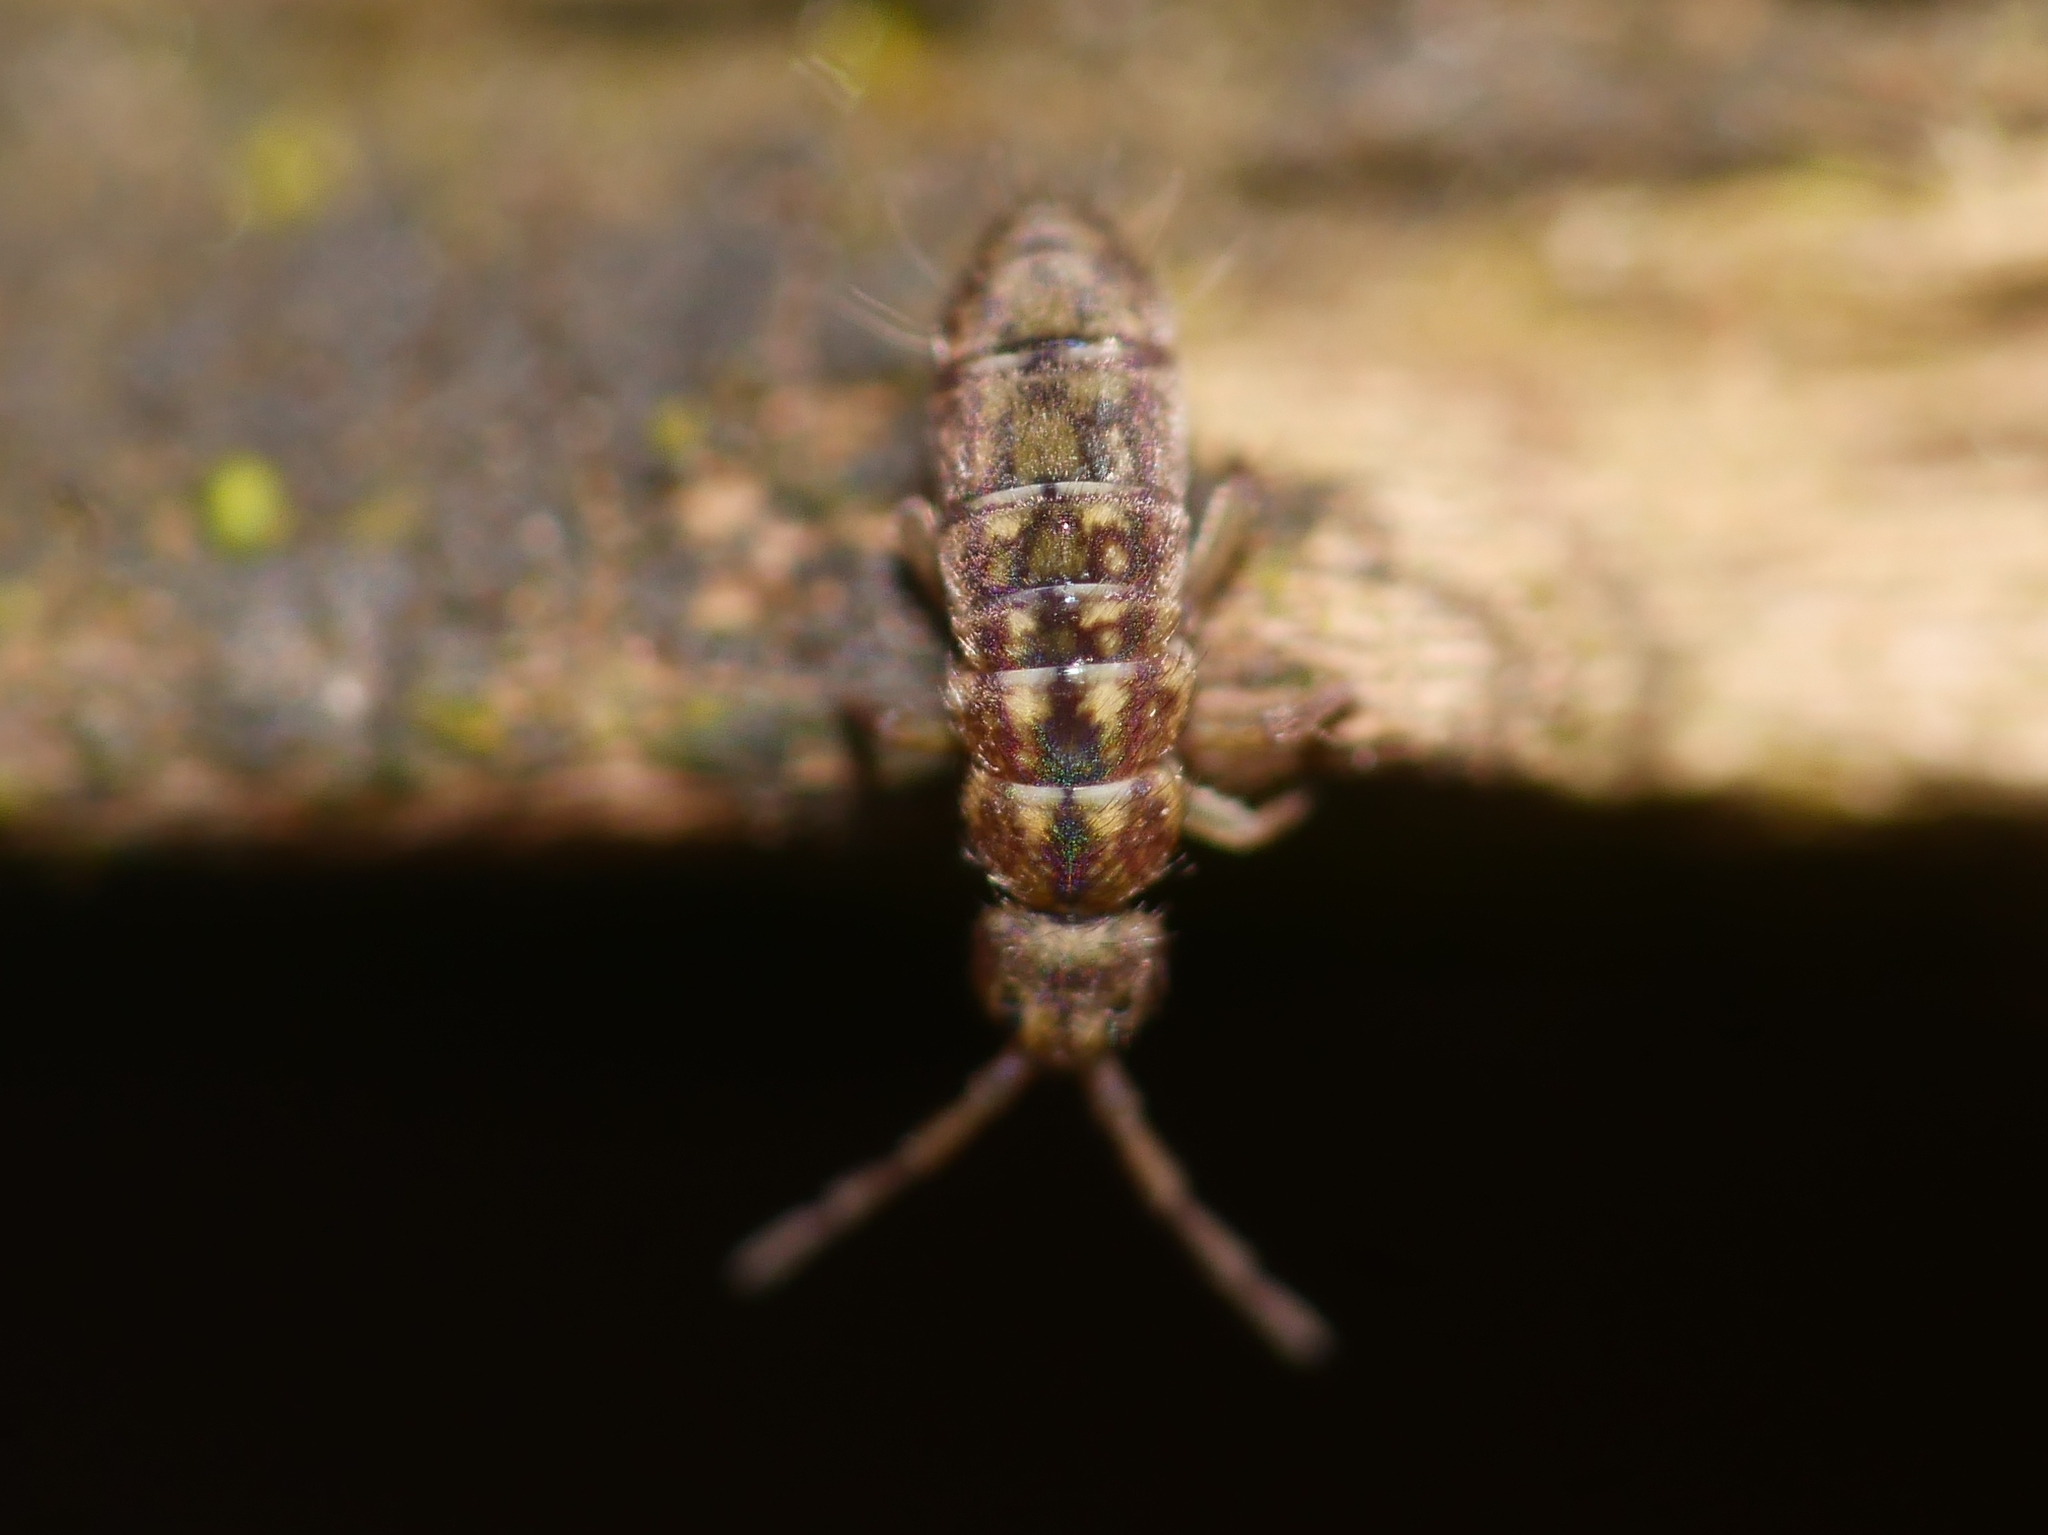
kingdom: Animalia
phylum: Arthropoda
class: Collembola
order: Entomobryomorpha
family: Isotomidae
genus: Isotomurus
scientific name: Isotomurus maculatus
